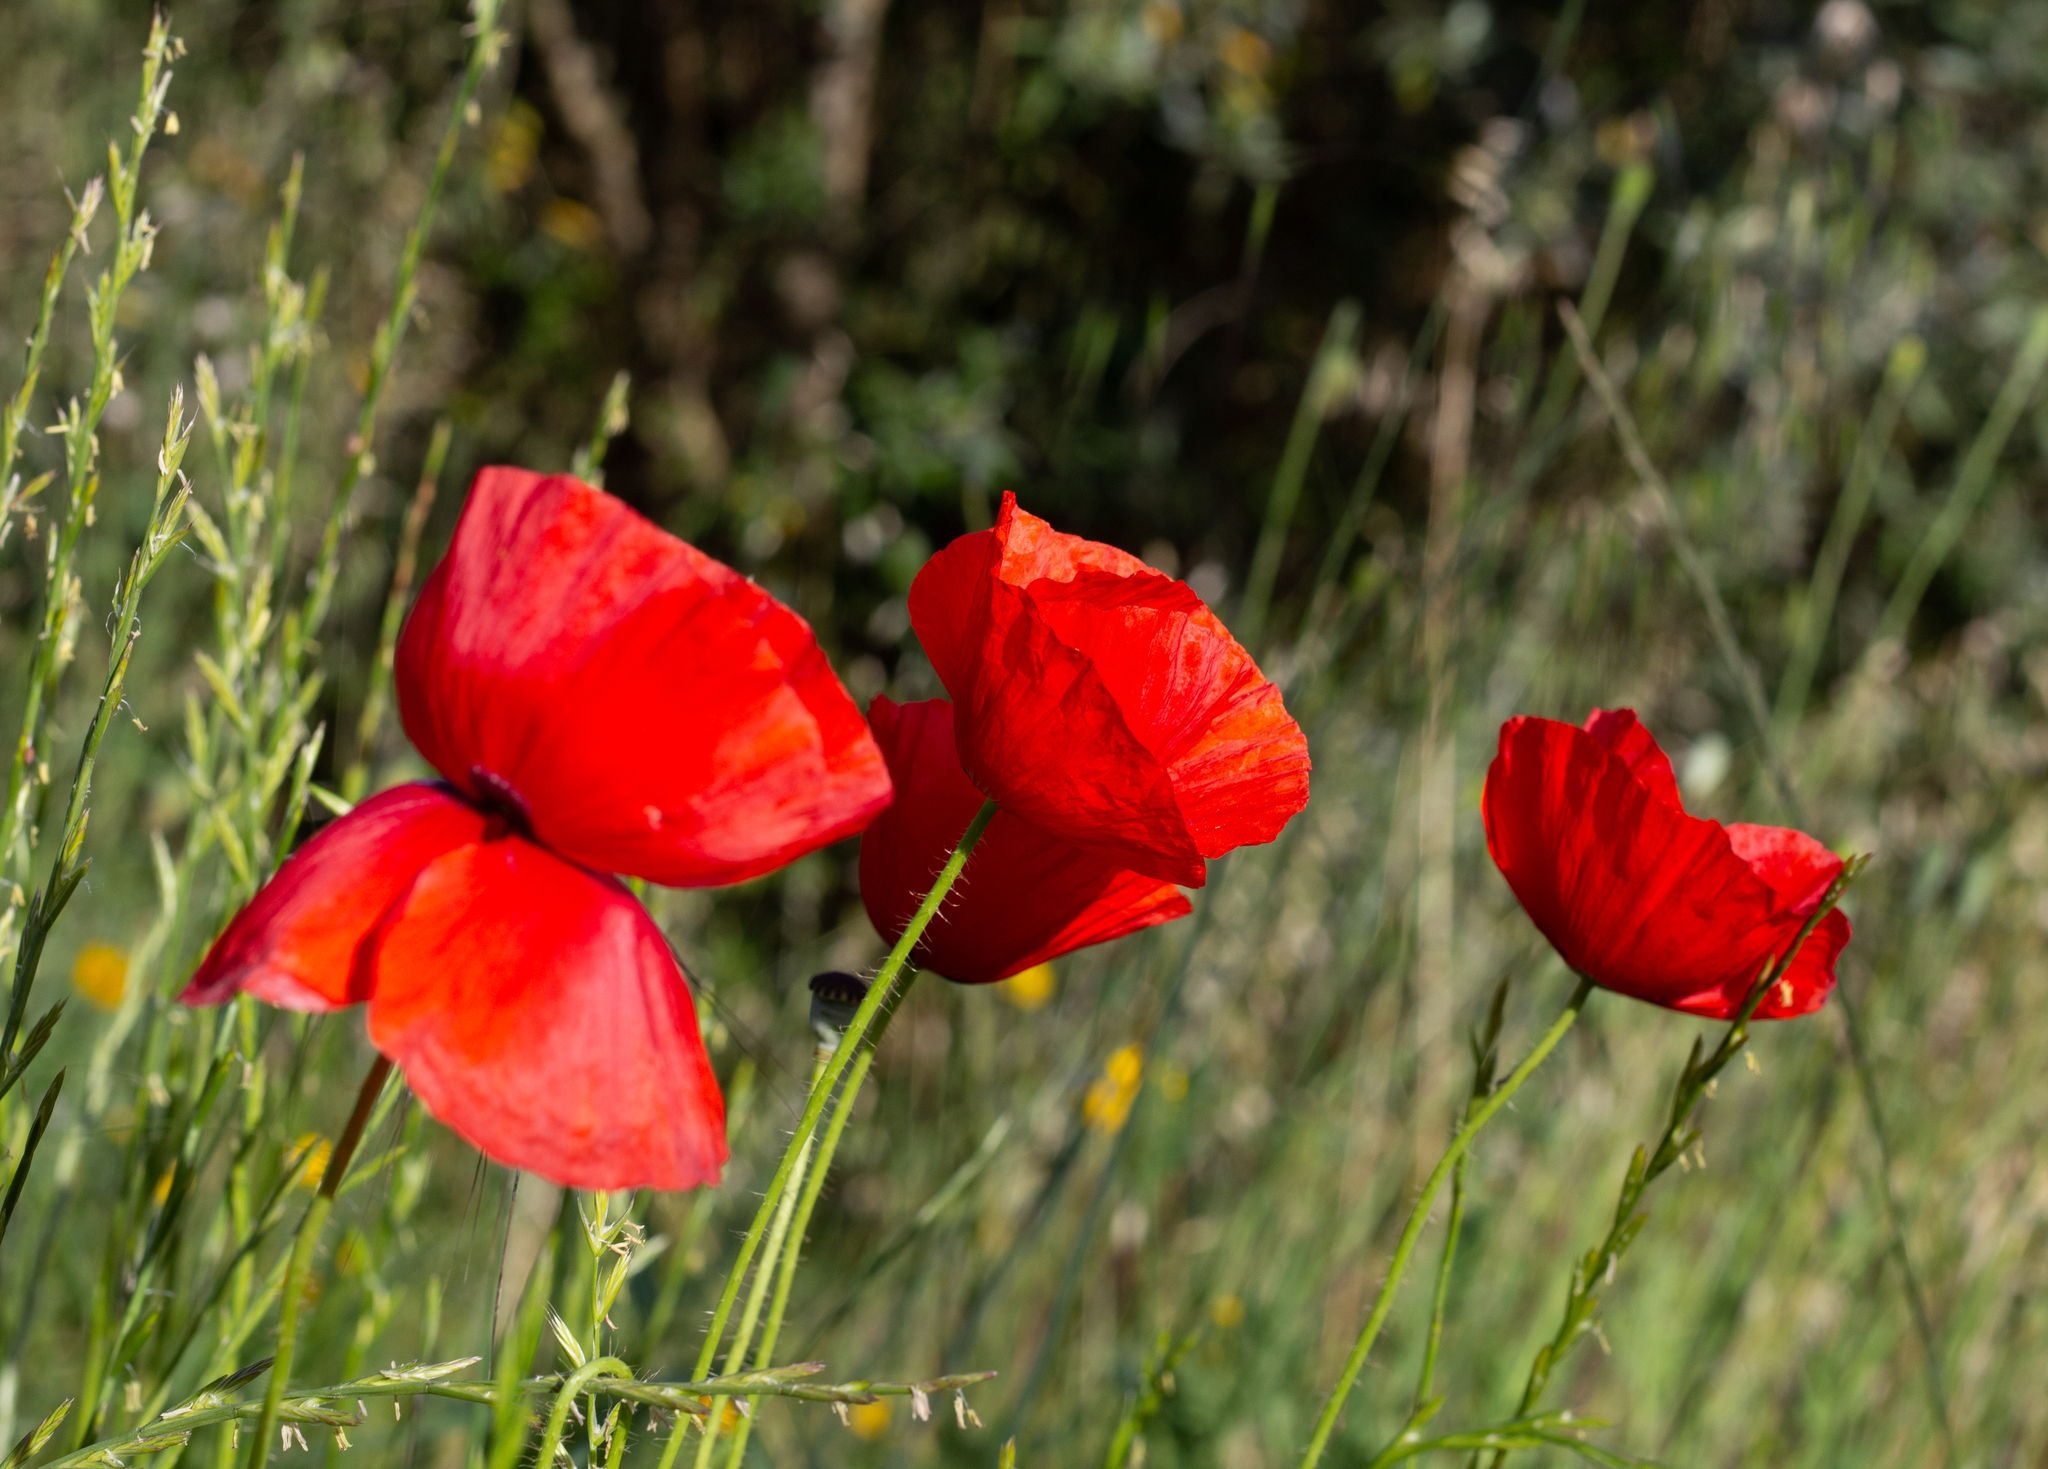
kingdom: Plantae
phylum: Tracheophyta
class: Magnoliopsida
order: Ranunculales
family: Papaveraceae
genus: Papaver
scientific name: Papaver rhoeas
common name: Corn poppy
